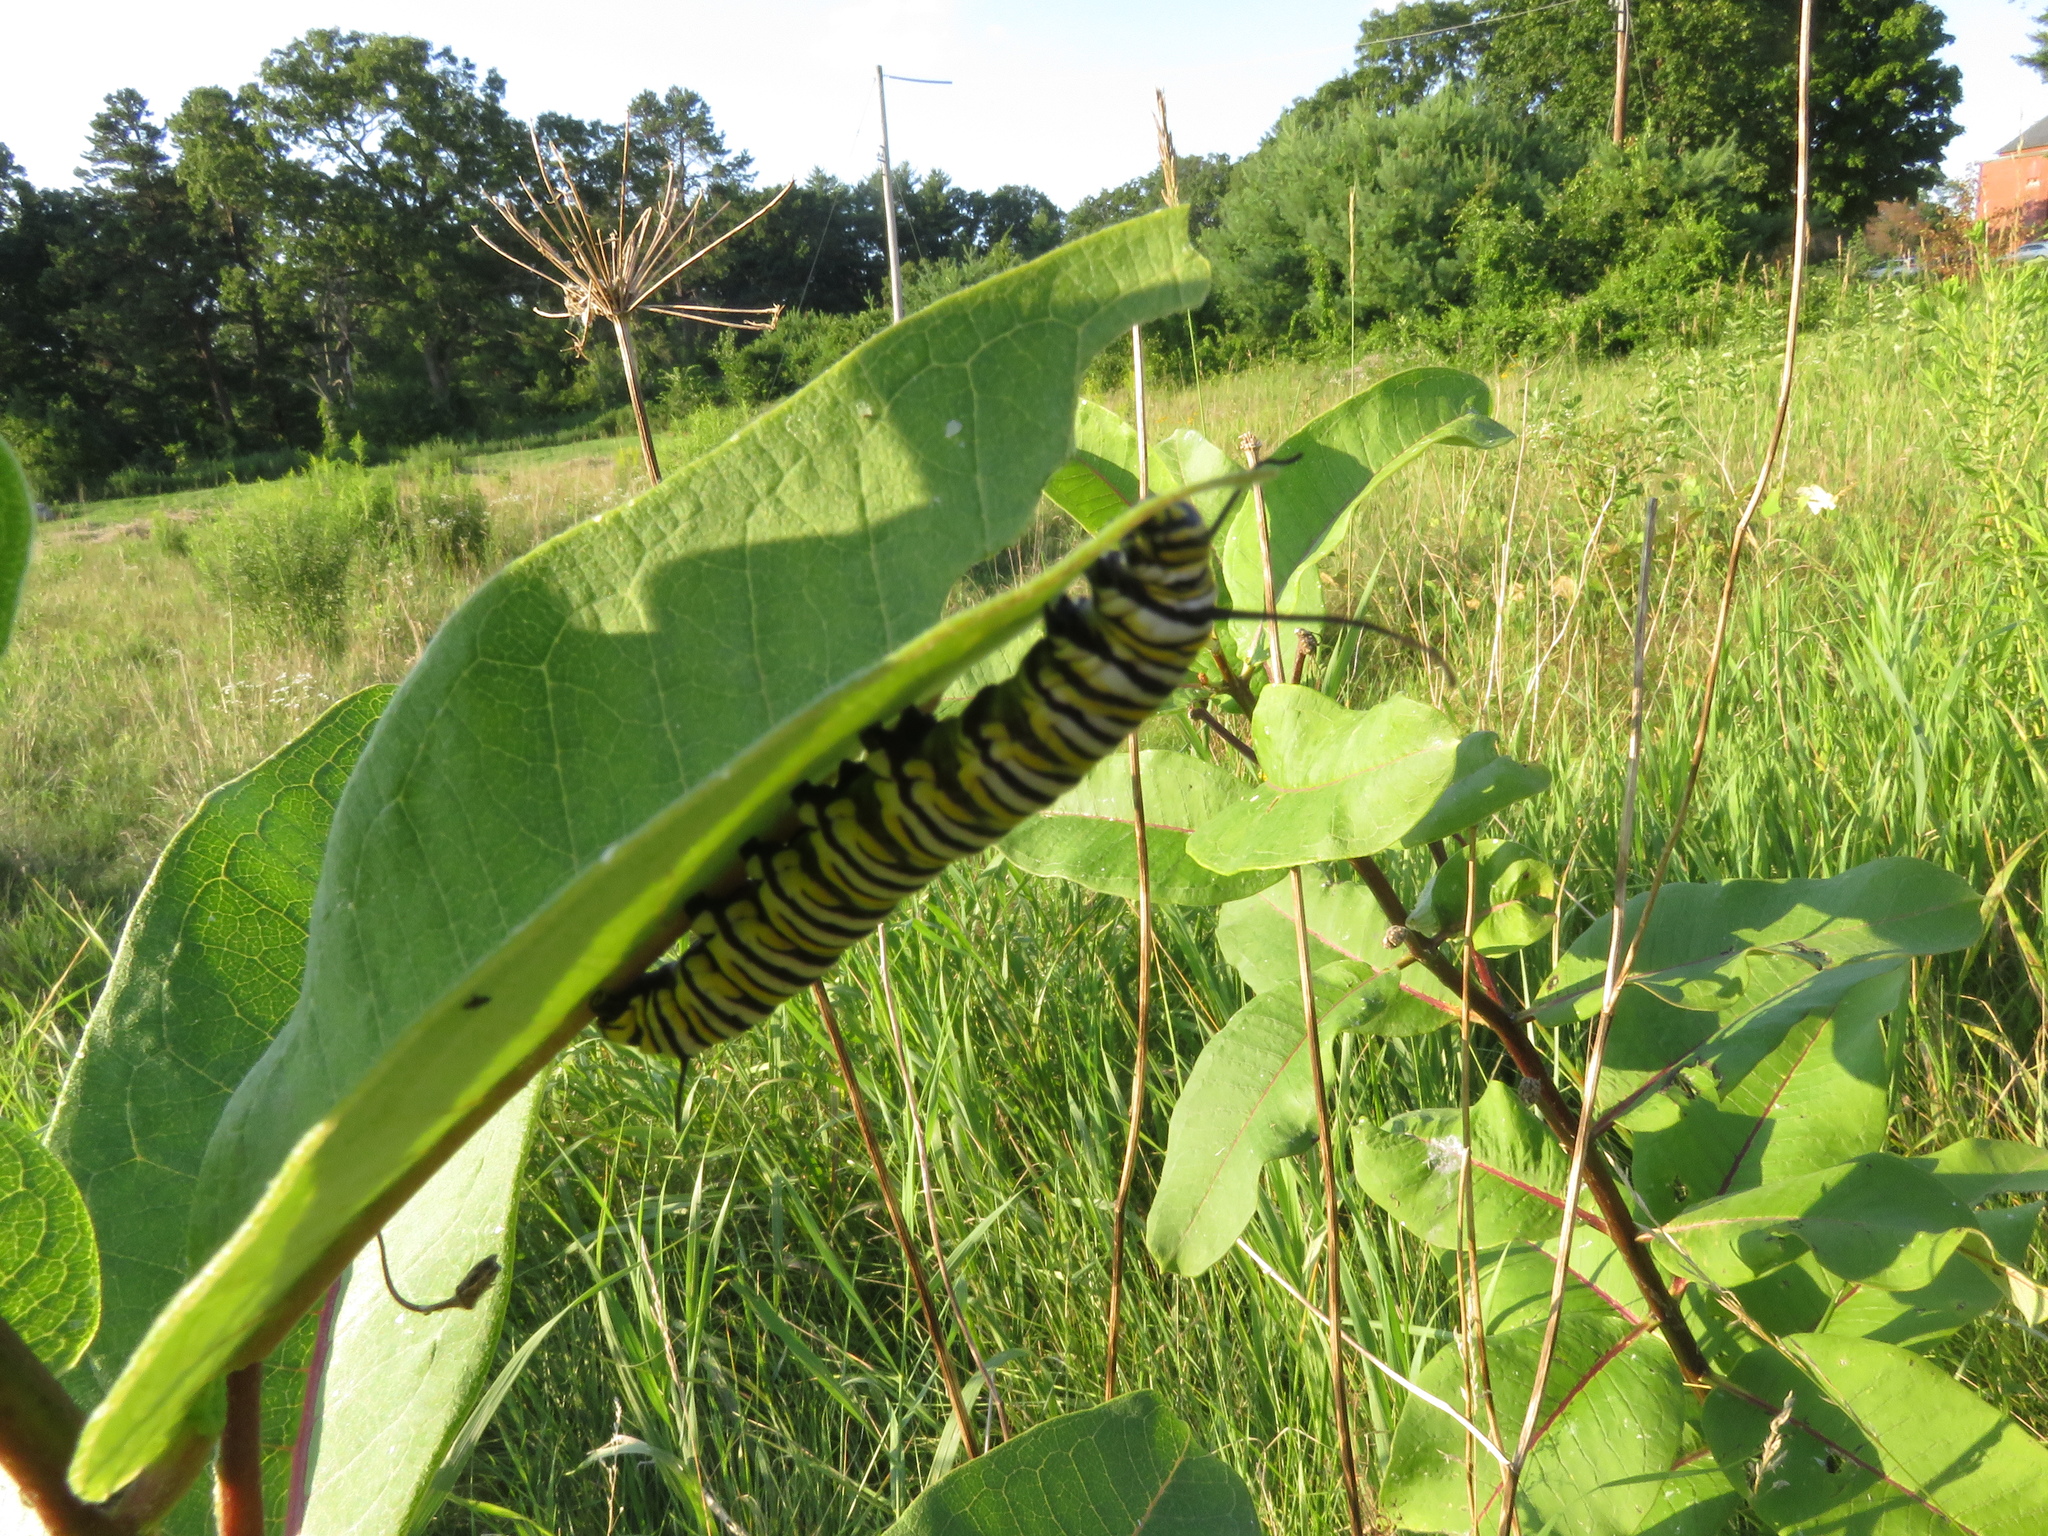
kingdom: Animalia
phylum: Arthropoda
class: Insecta
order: Lepidoptera
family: Nymphalidae
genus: Danaus
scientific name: Danaus plexippus
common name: Monarch
